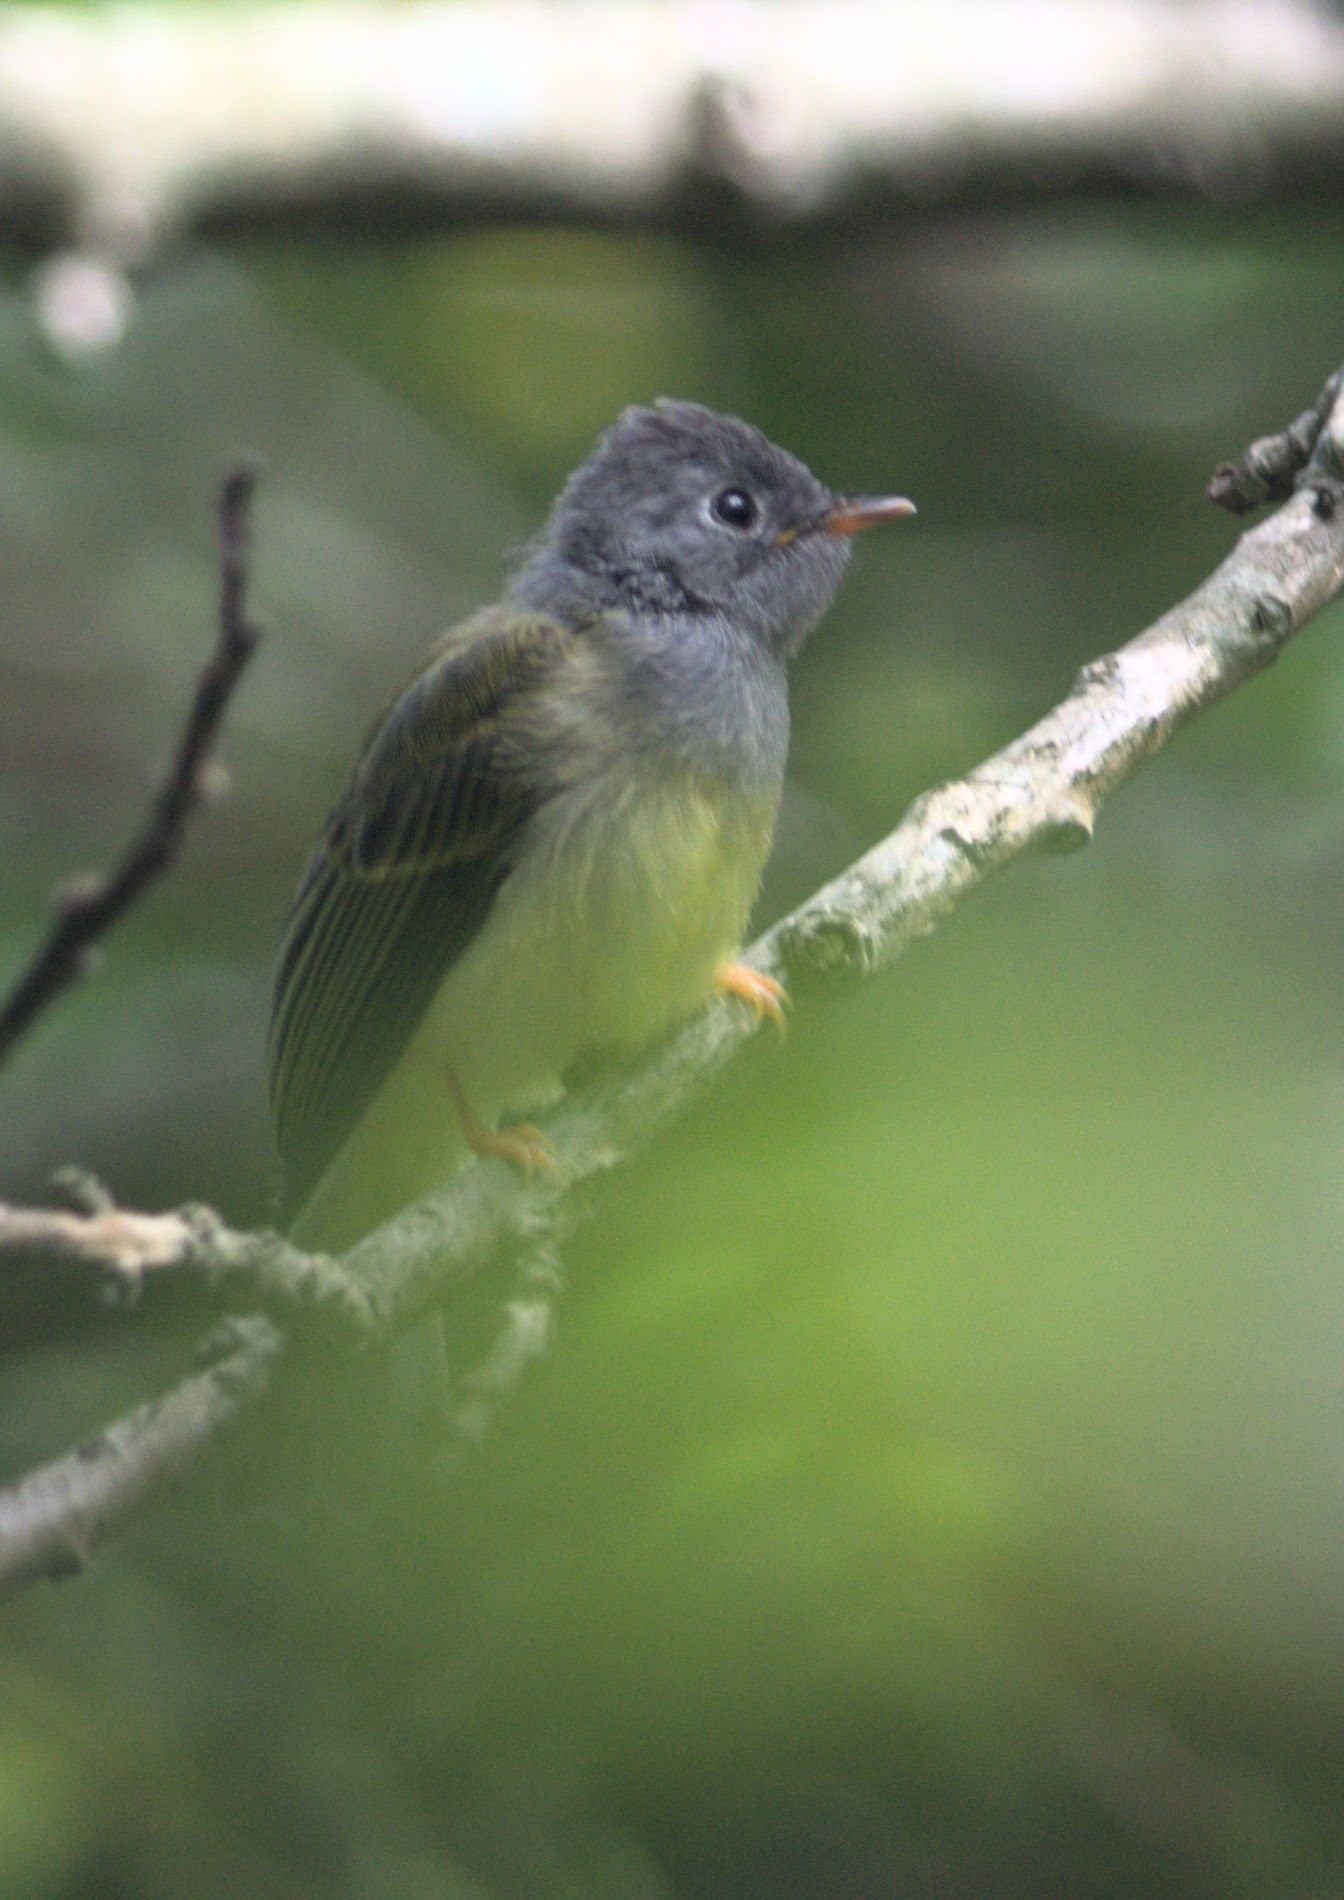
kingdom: Animalia
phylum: Chordata
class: Aves
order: Passeriformes
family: Stenostiridae
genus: Culicicapa
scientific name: Culicicapa ceylonensis
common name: Grey-headed canary-flycatcher
